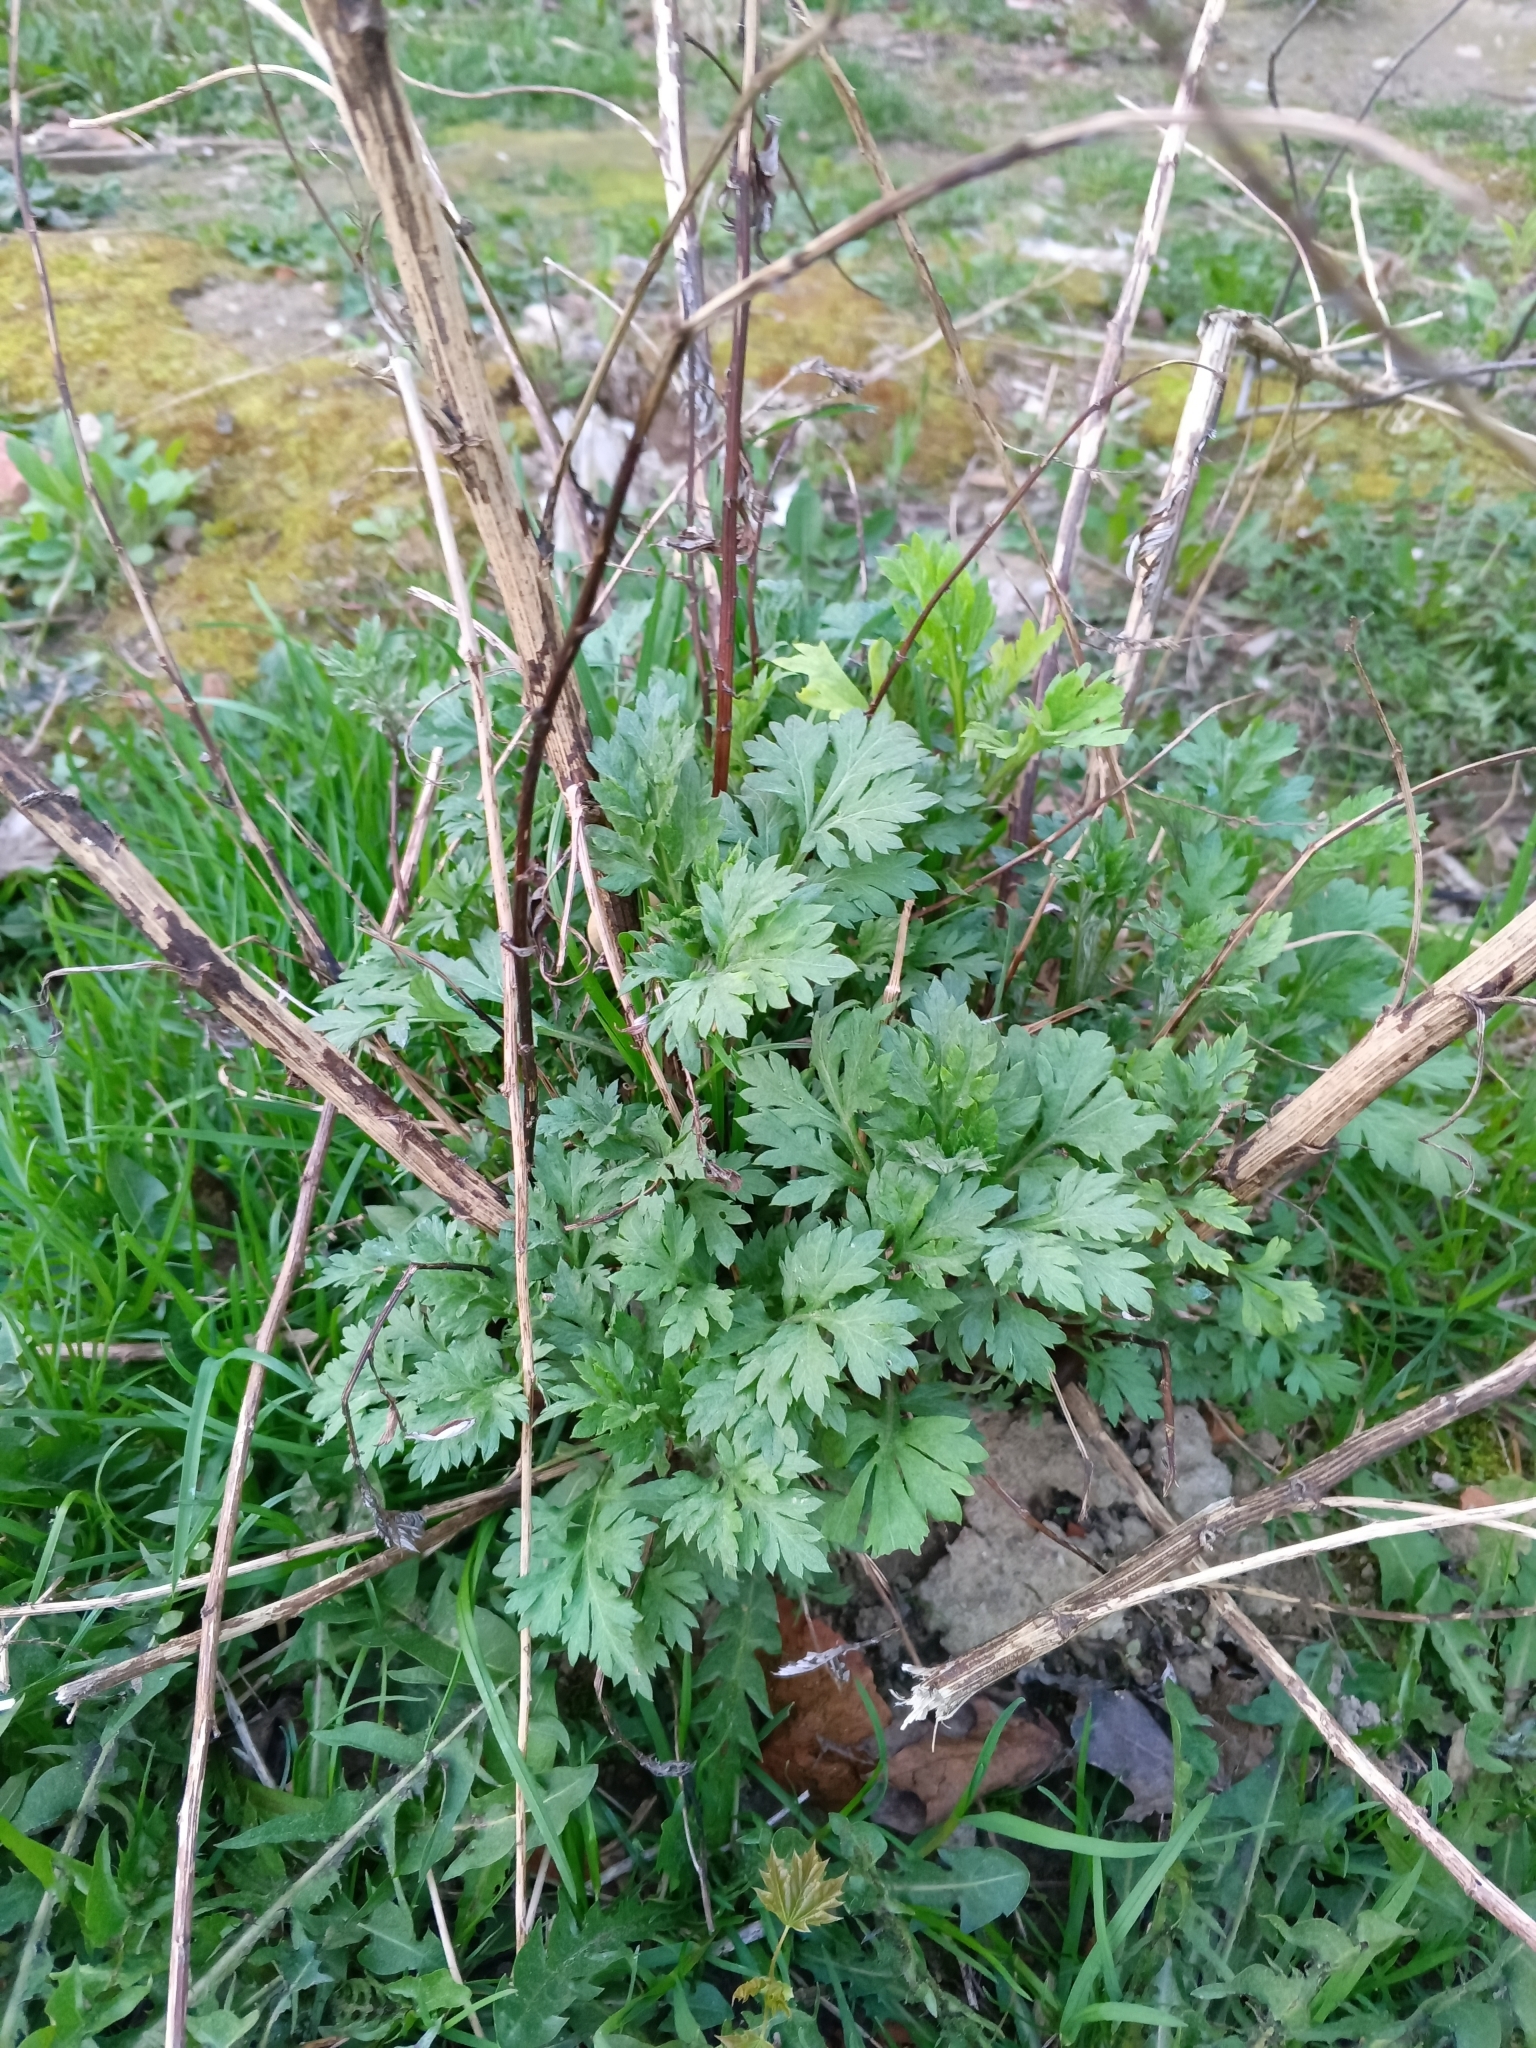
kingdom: Plantae
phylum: Tracheophyta
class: Magnoliopsida
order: Asterales
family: Asteraceae
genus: Artemisia
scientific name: Artemisia vulgaris
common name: Mugwort
